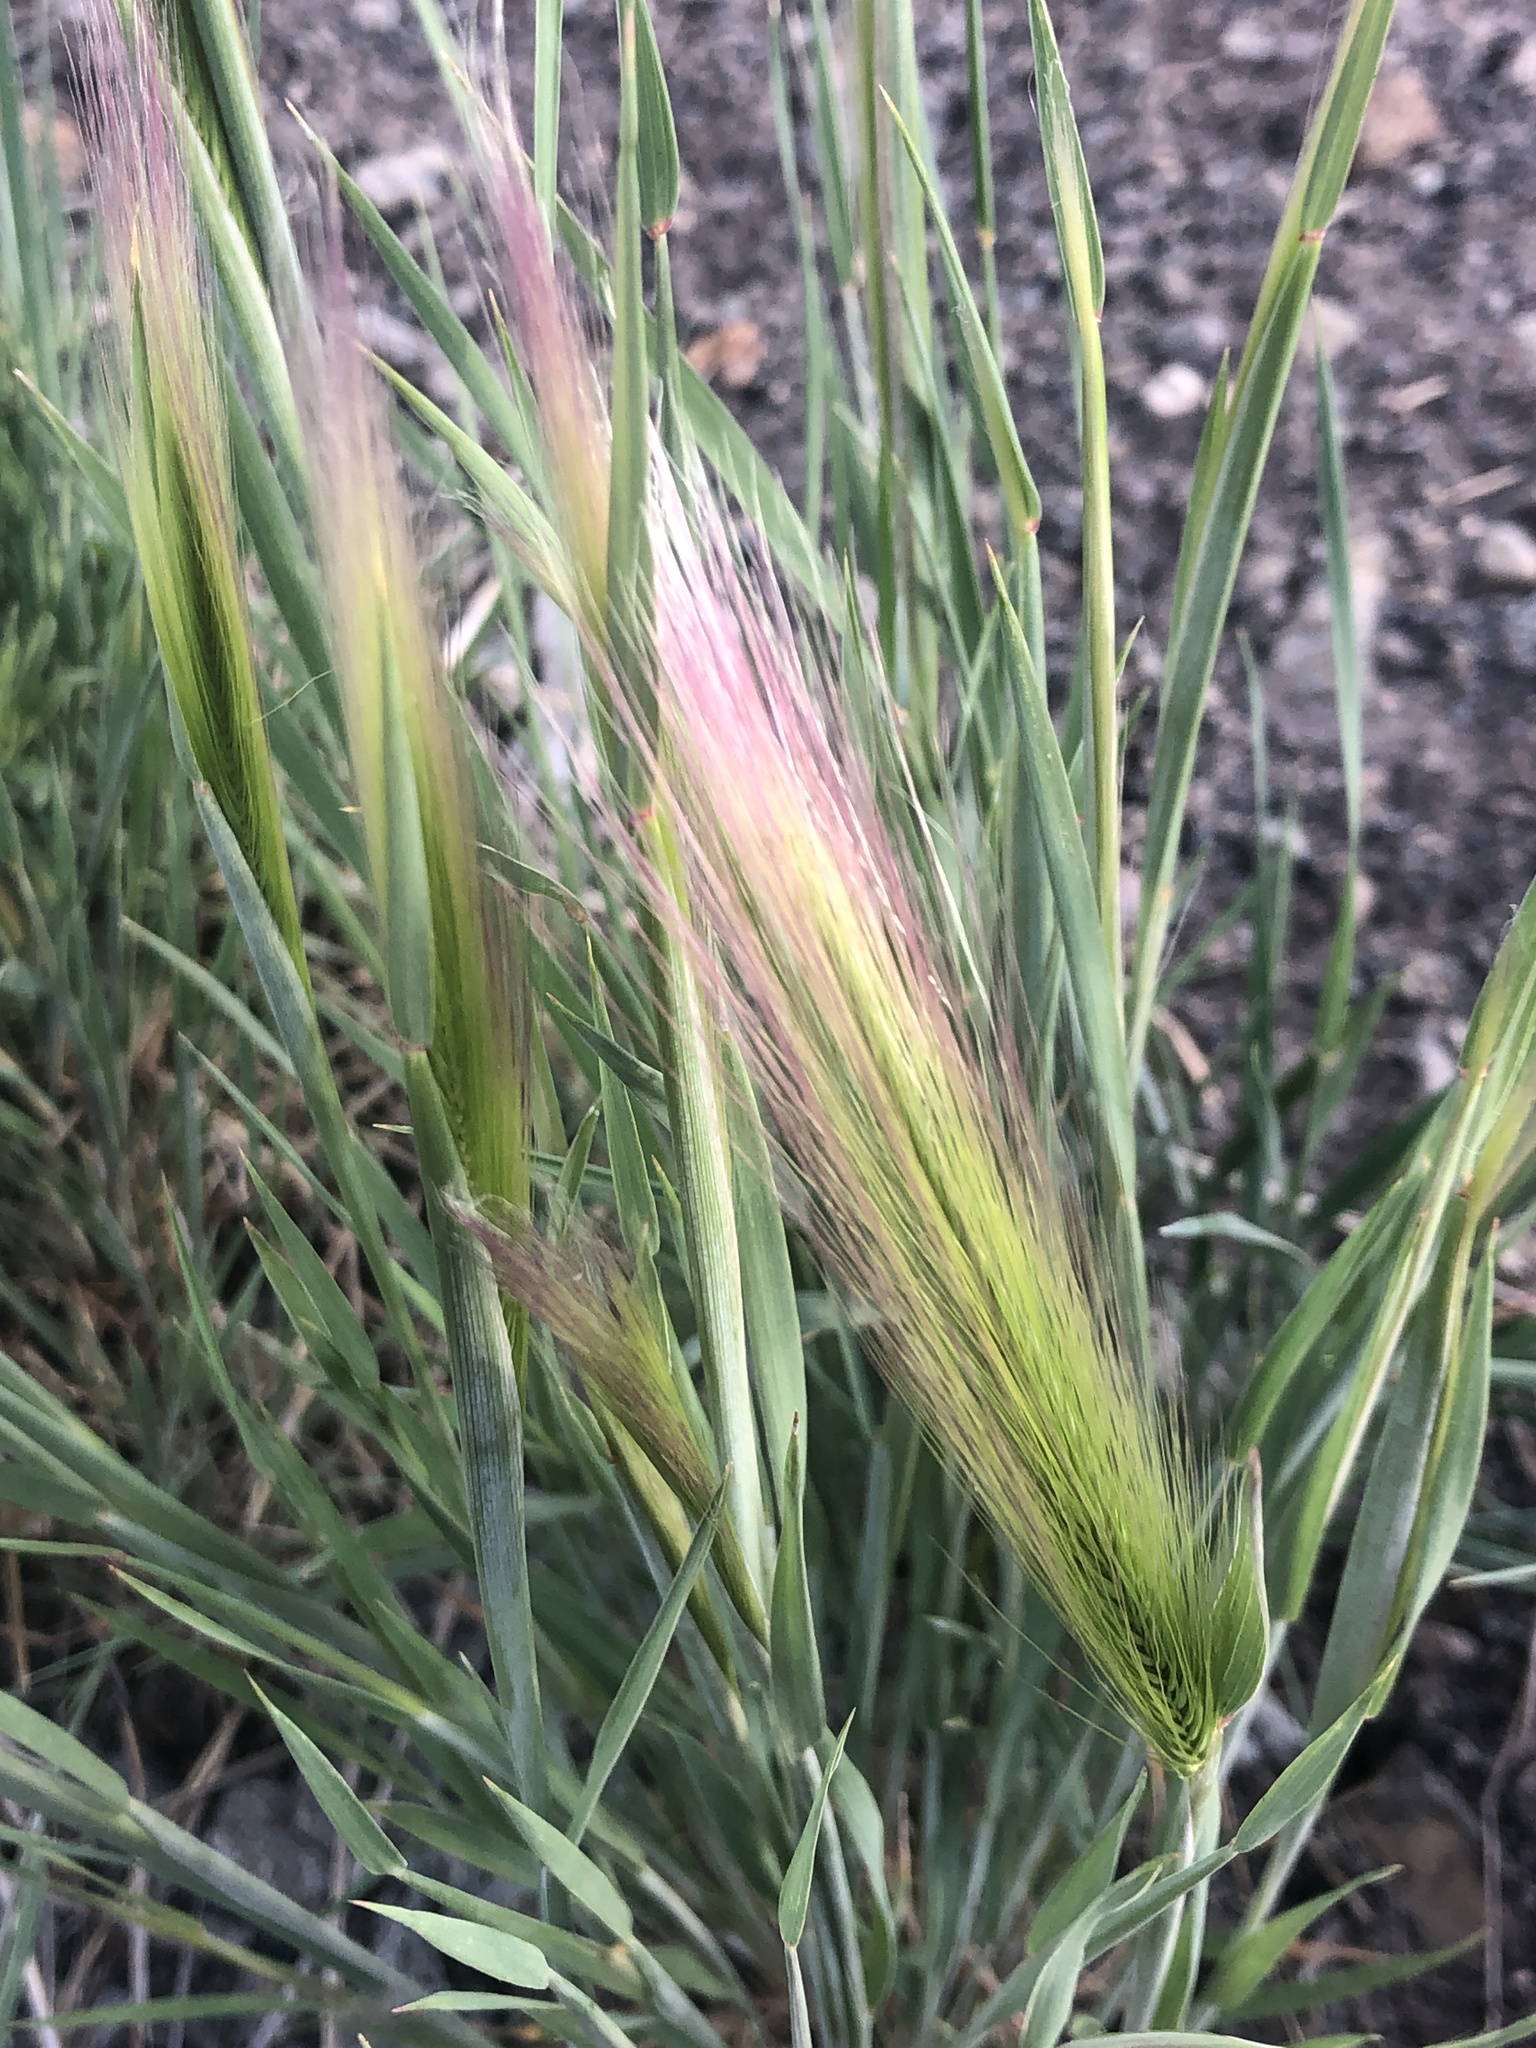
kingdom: Plantae
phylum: Tracheophyta
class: Liliopsida
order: Poales
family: Poaceae
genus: Hordeum
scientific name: Hordeum jubatum
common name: Foxtail barley
